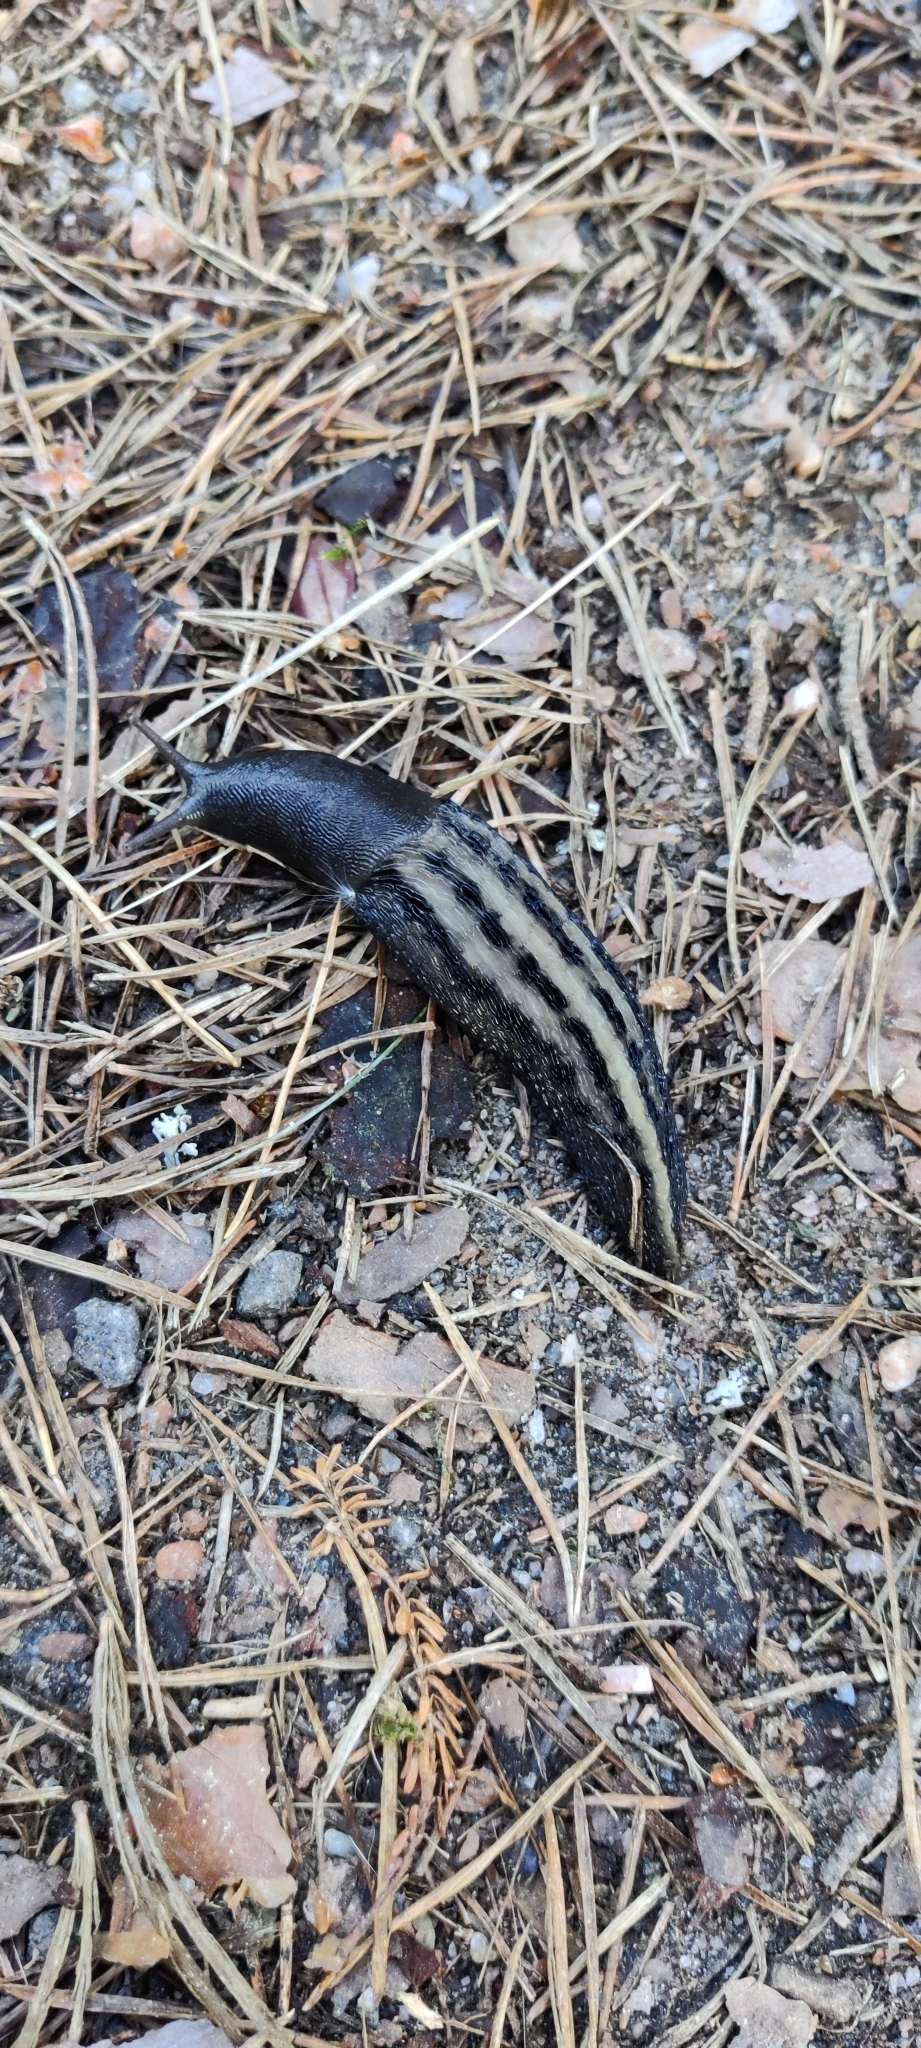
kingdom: Animalia
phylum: Mollusca
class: Gastropoda
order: Stylommatophora
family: Limacidae
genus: Limax
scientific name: Limax cinereoniger
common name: Ash-black slug
